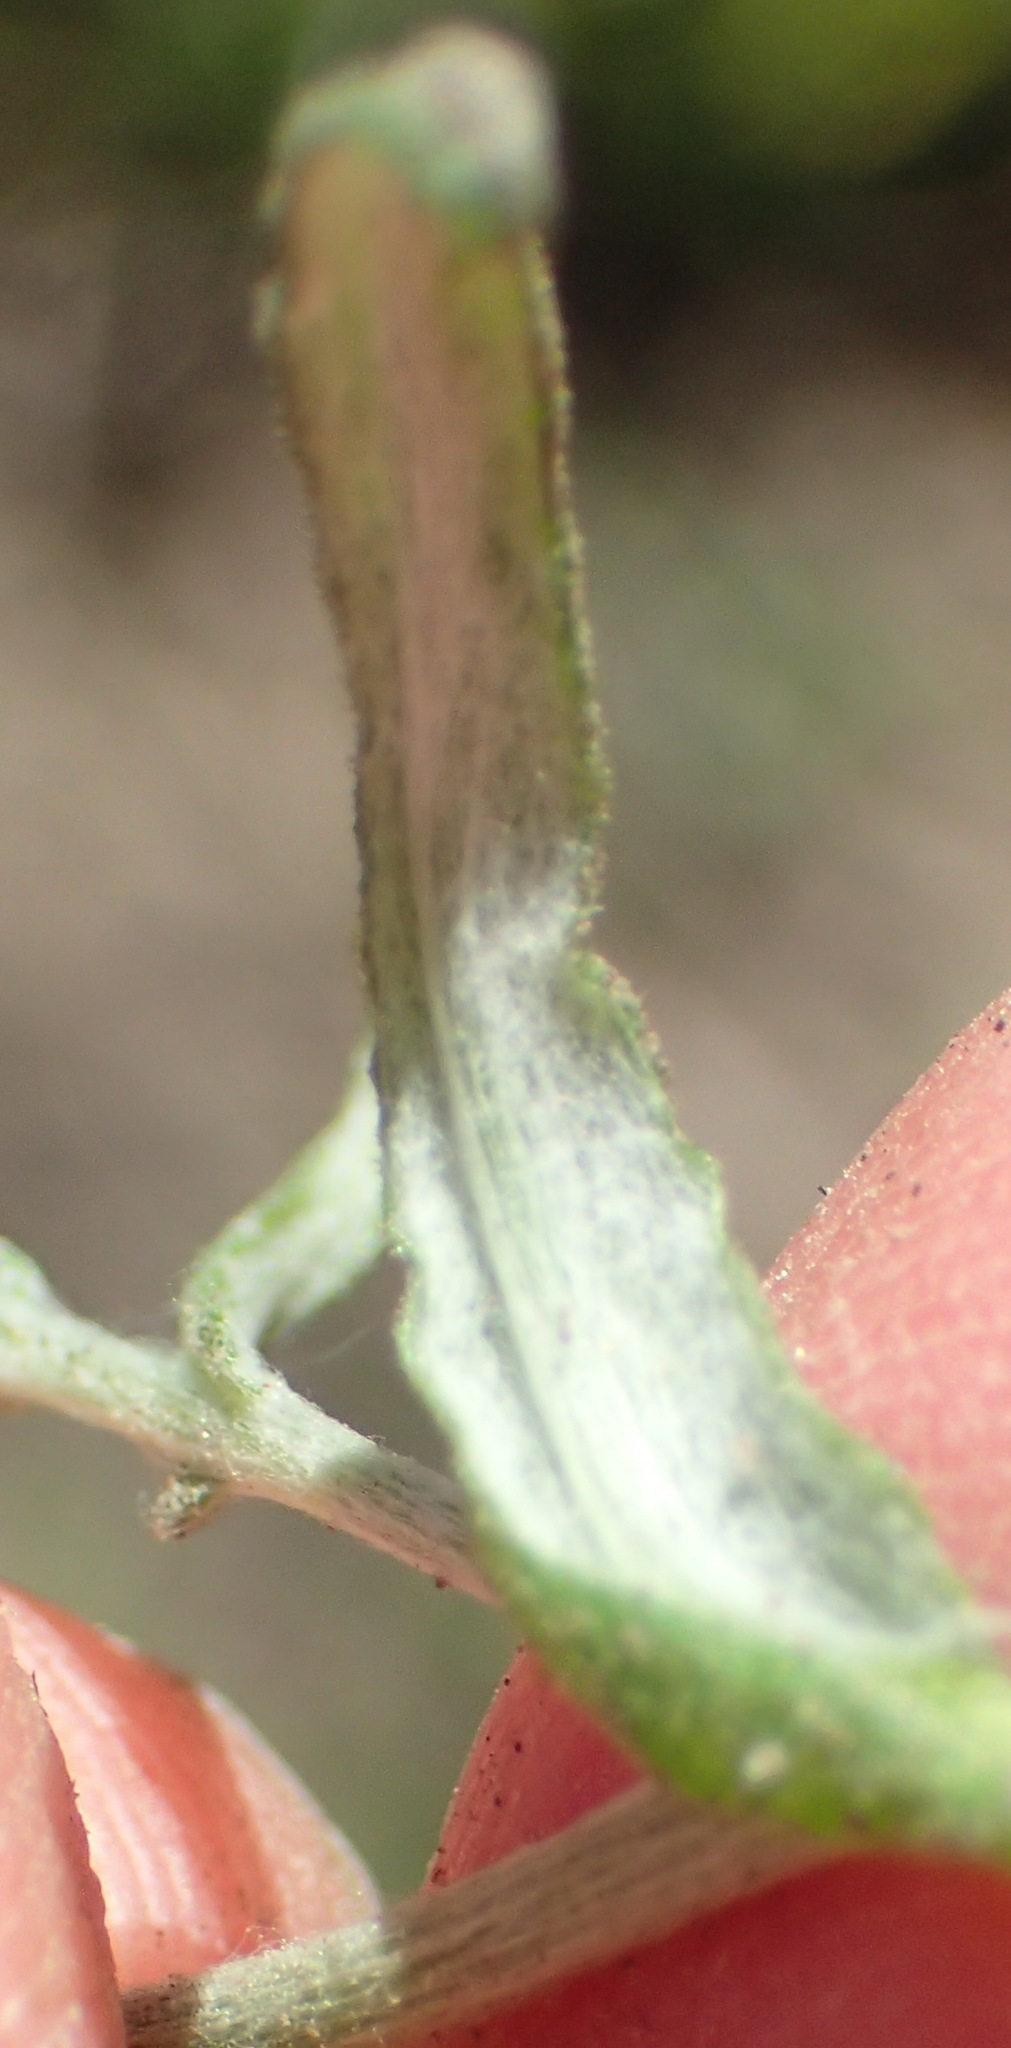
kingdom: Plantae
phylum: Tracheophyta
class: Magnoliopsida
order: Asterales
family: Asteraceae
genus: Pseudognaphalium
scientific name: Pseudognaphalium undulatum
